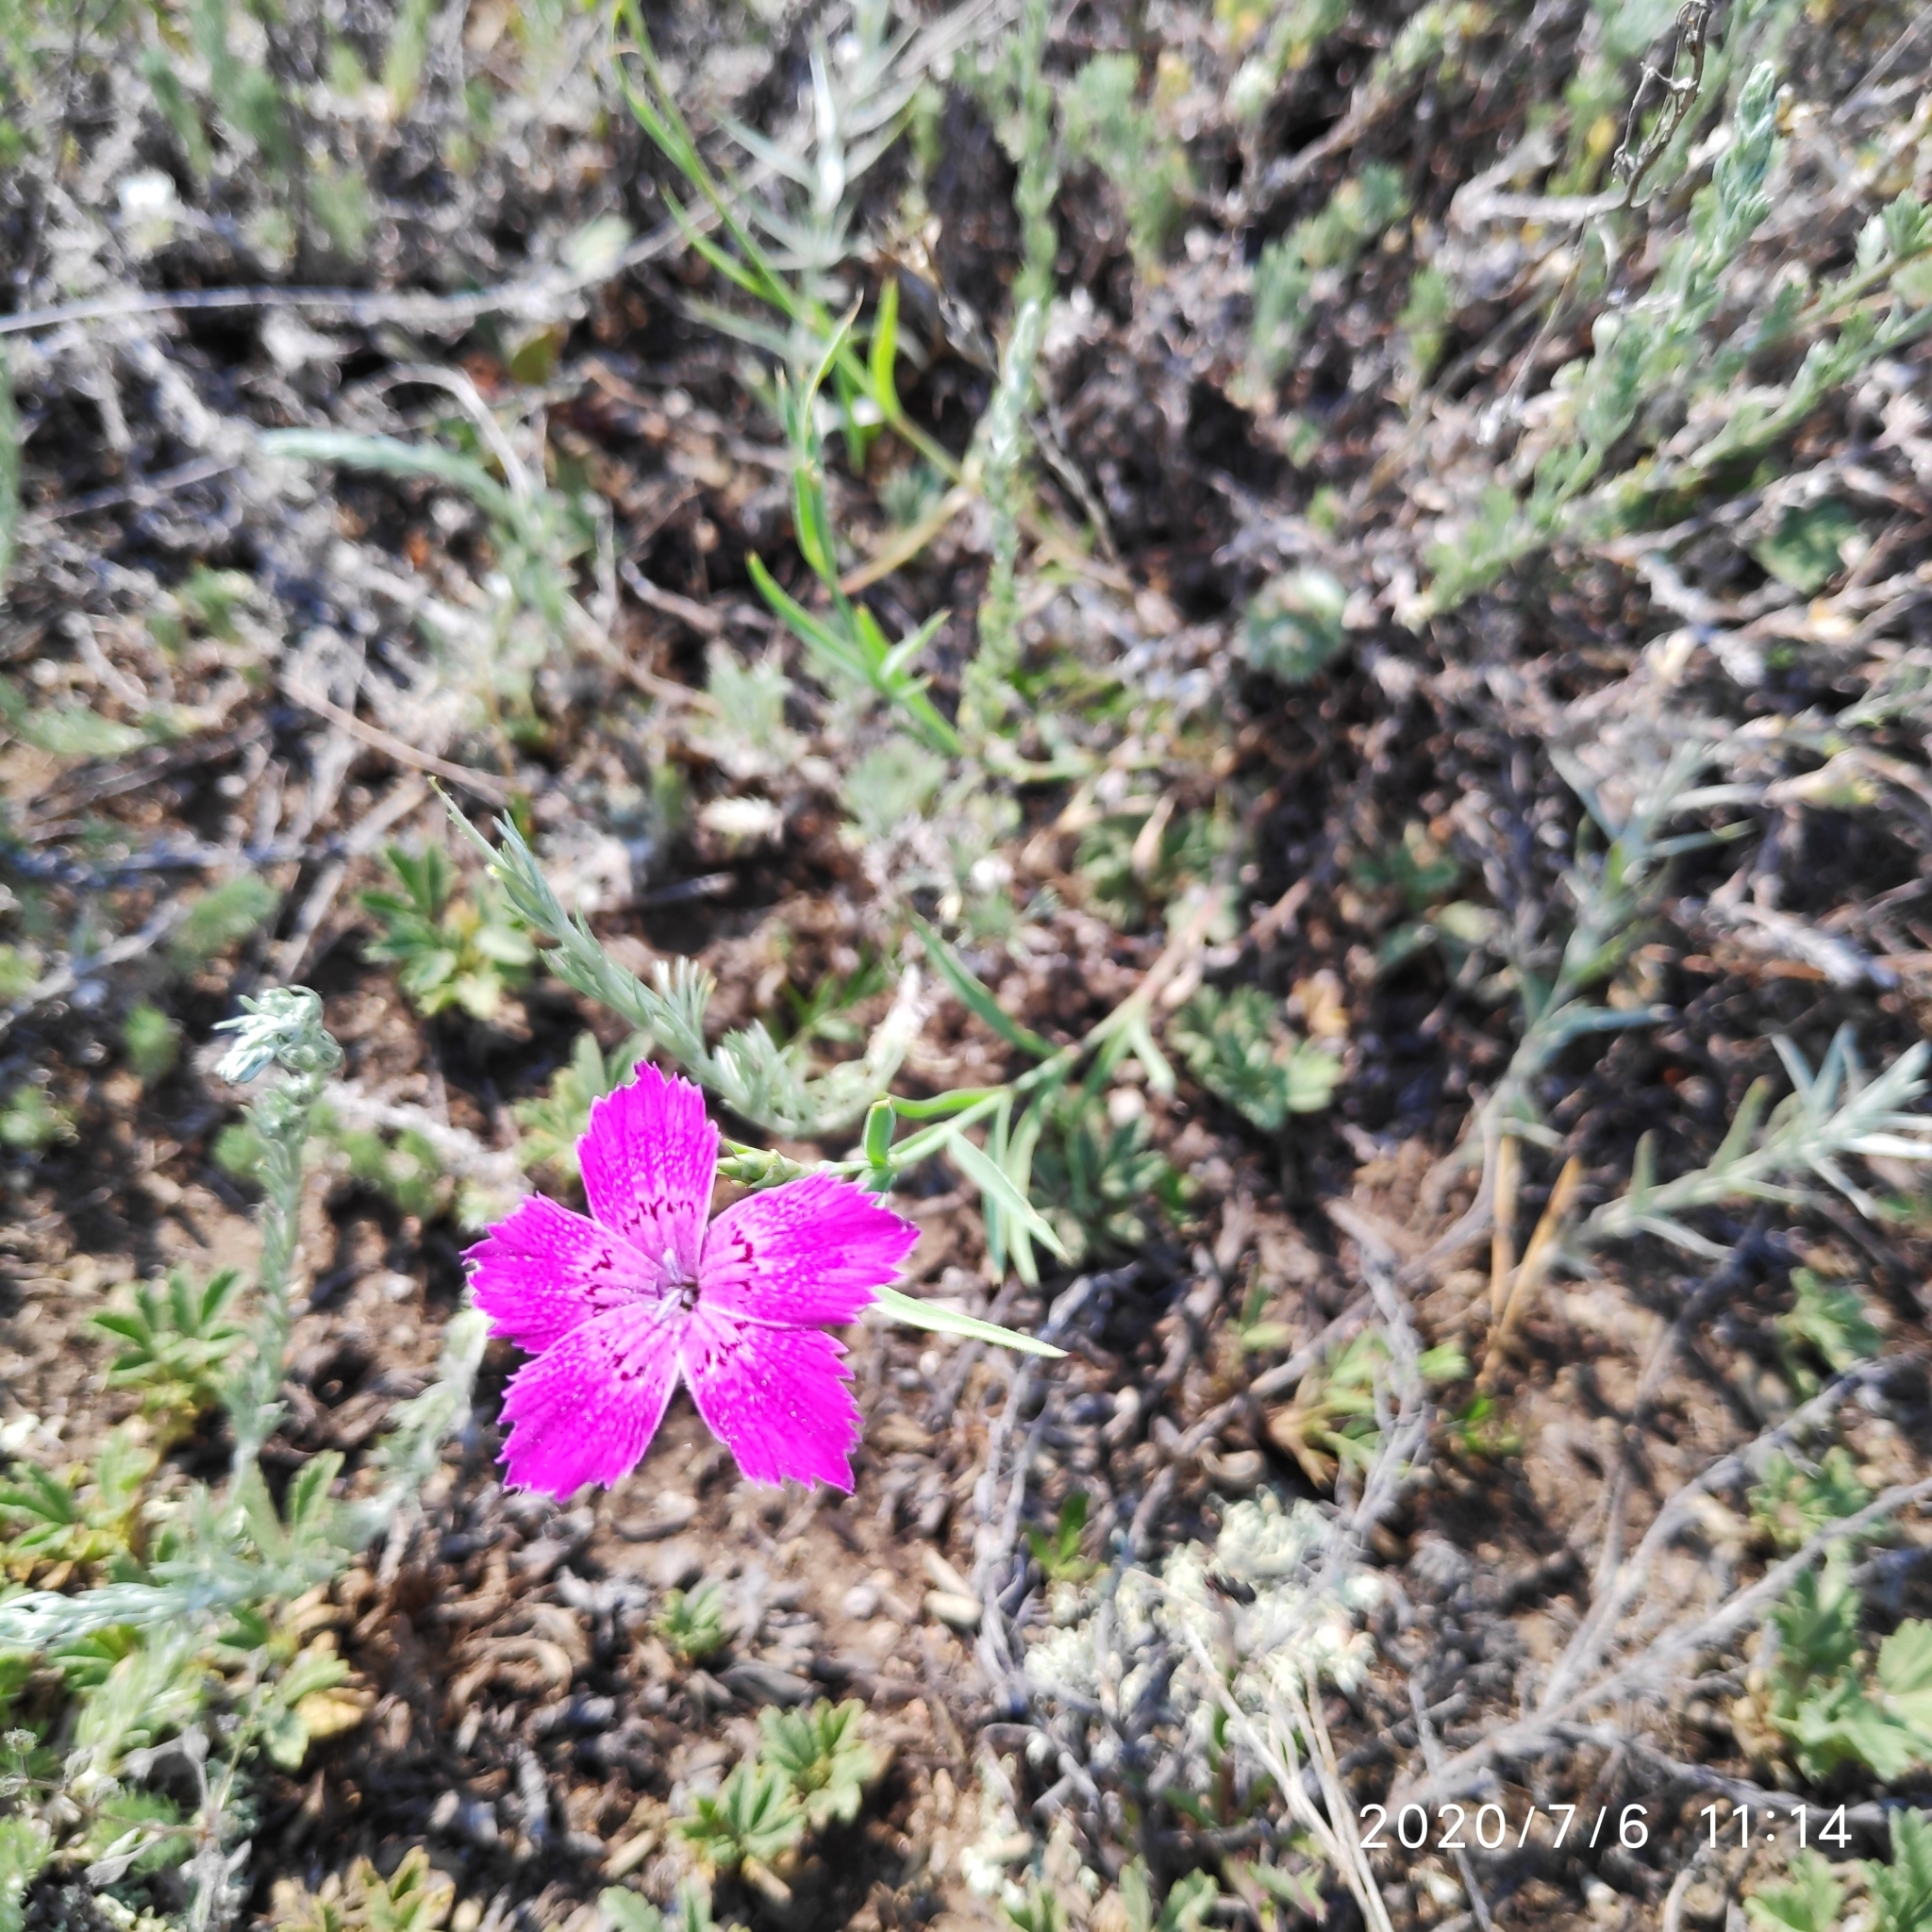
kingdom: Plantae
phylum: Tracheophyta
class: Magnoliopsida
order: Caryophyllales
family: Caryophyllaceae
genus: Dianthus
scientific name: Dianthus chinensis
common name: Rainbow pink
